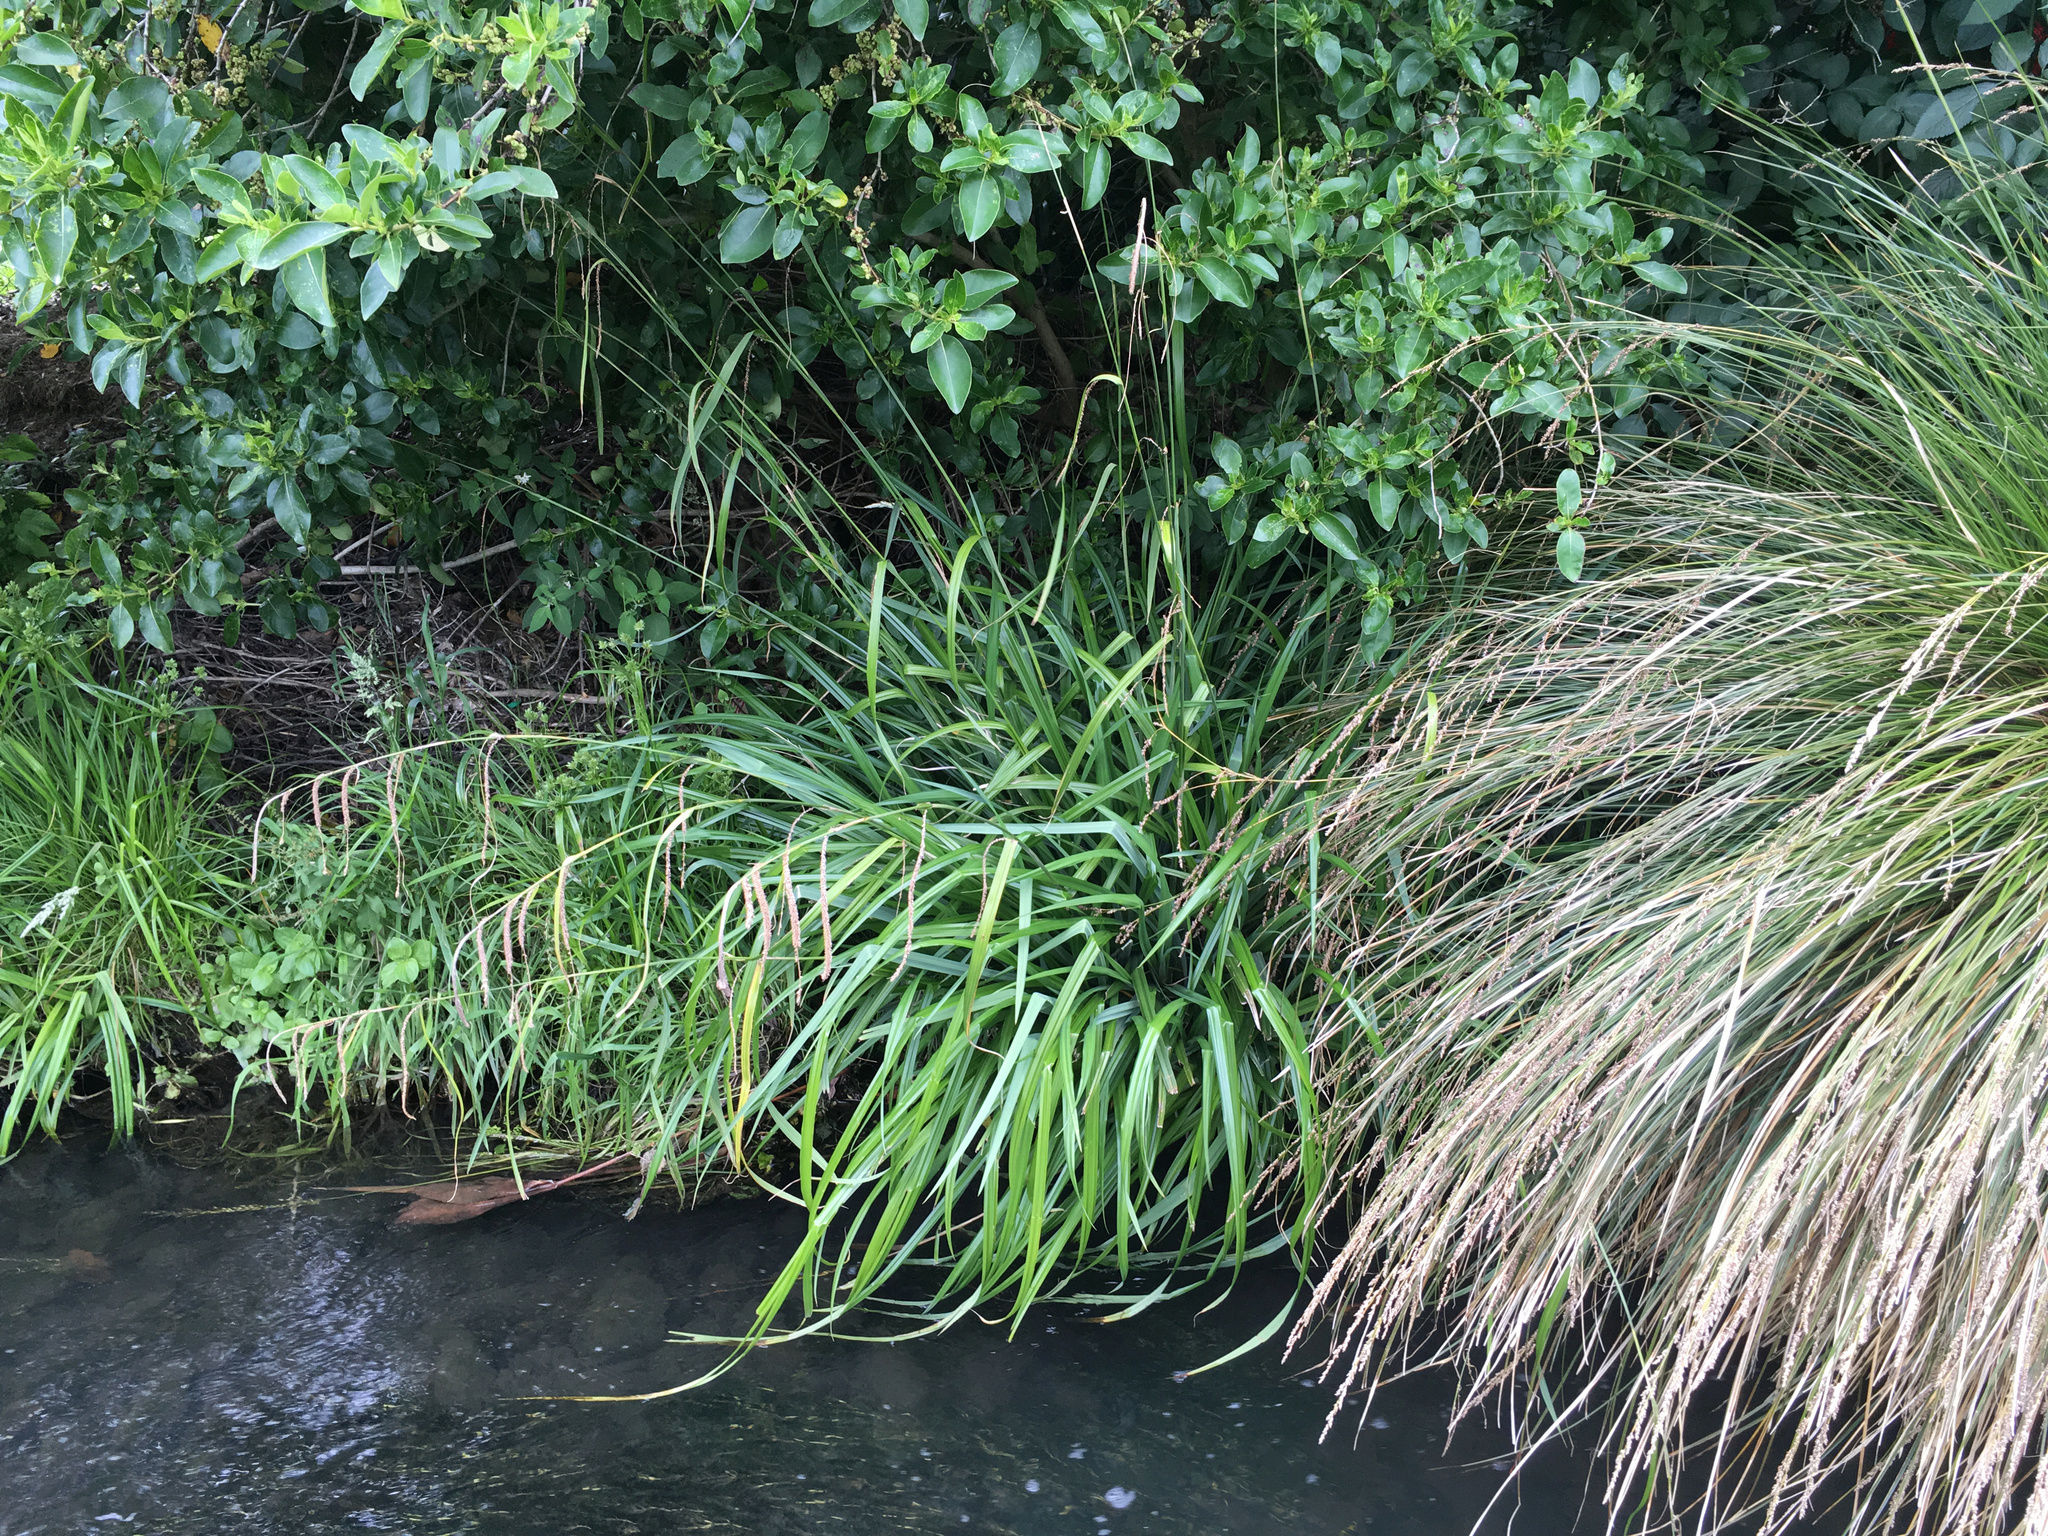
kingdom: Plantae
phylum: Tracheophyta
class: Liliopsida
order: Poales
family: Cyperaceae
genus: Carex
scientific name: Carex pendula
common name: Pendulous sedge
